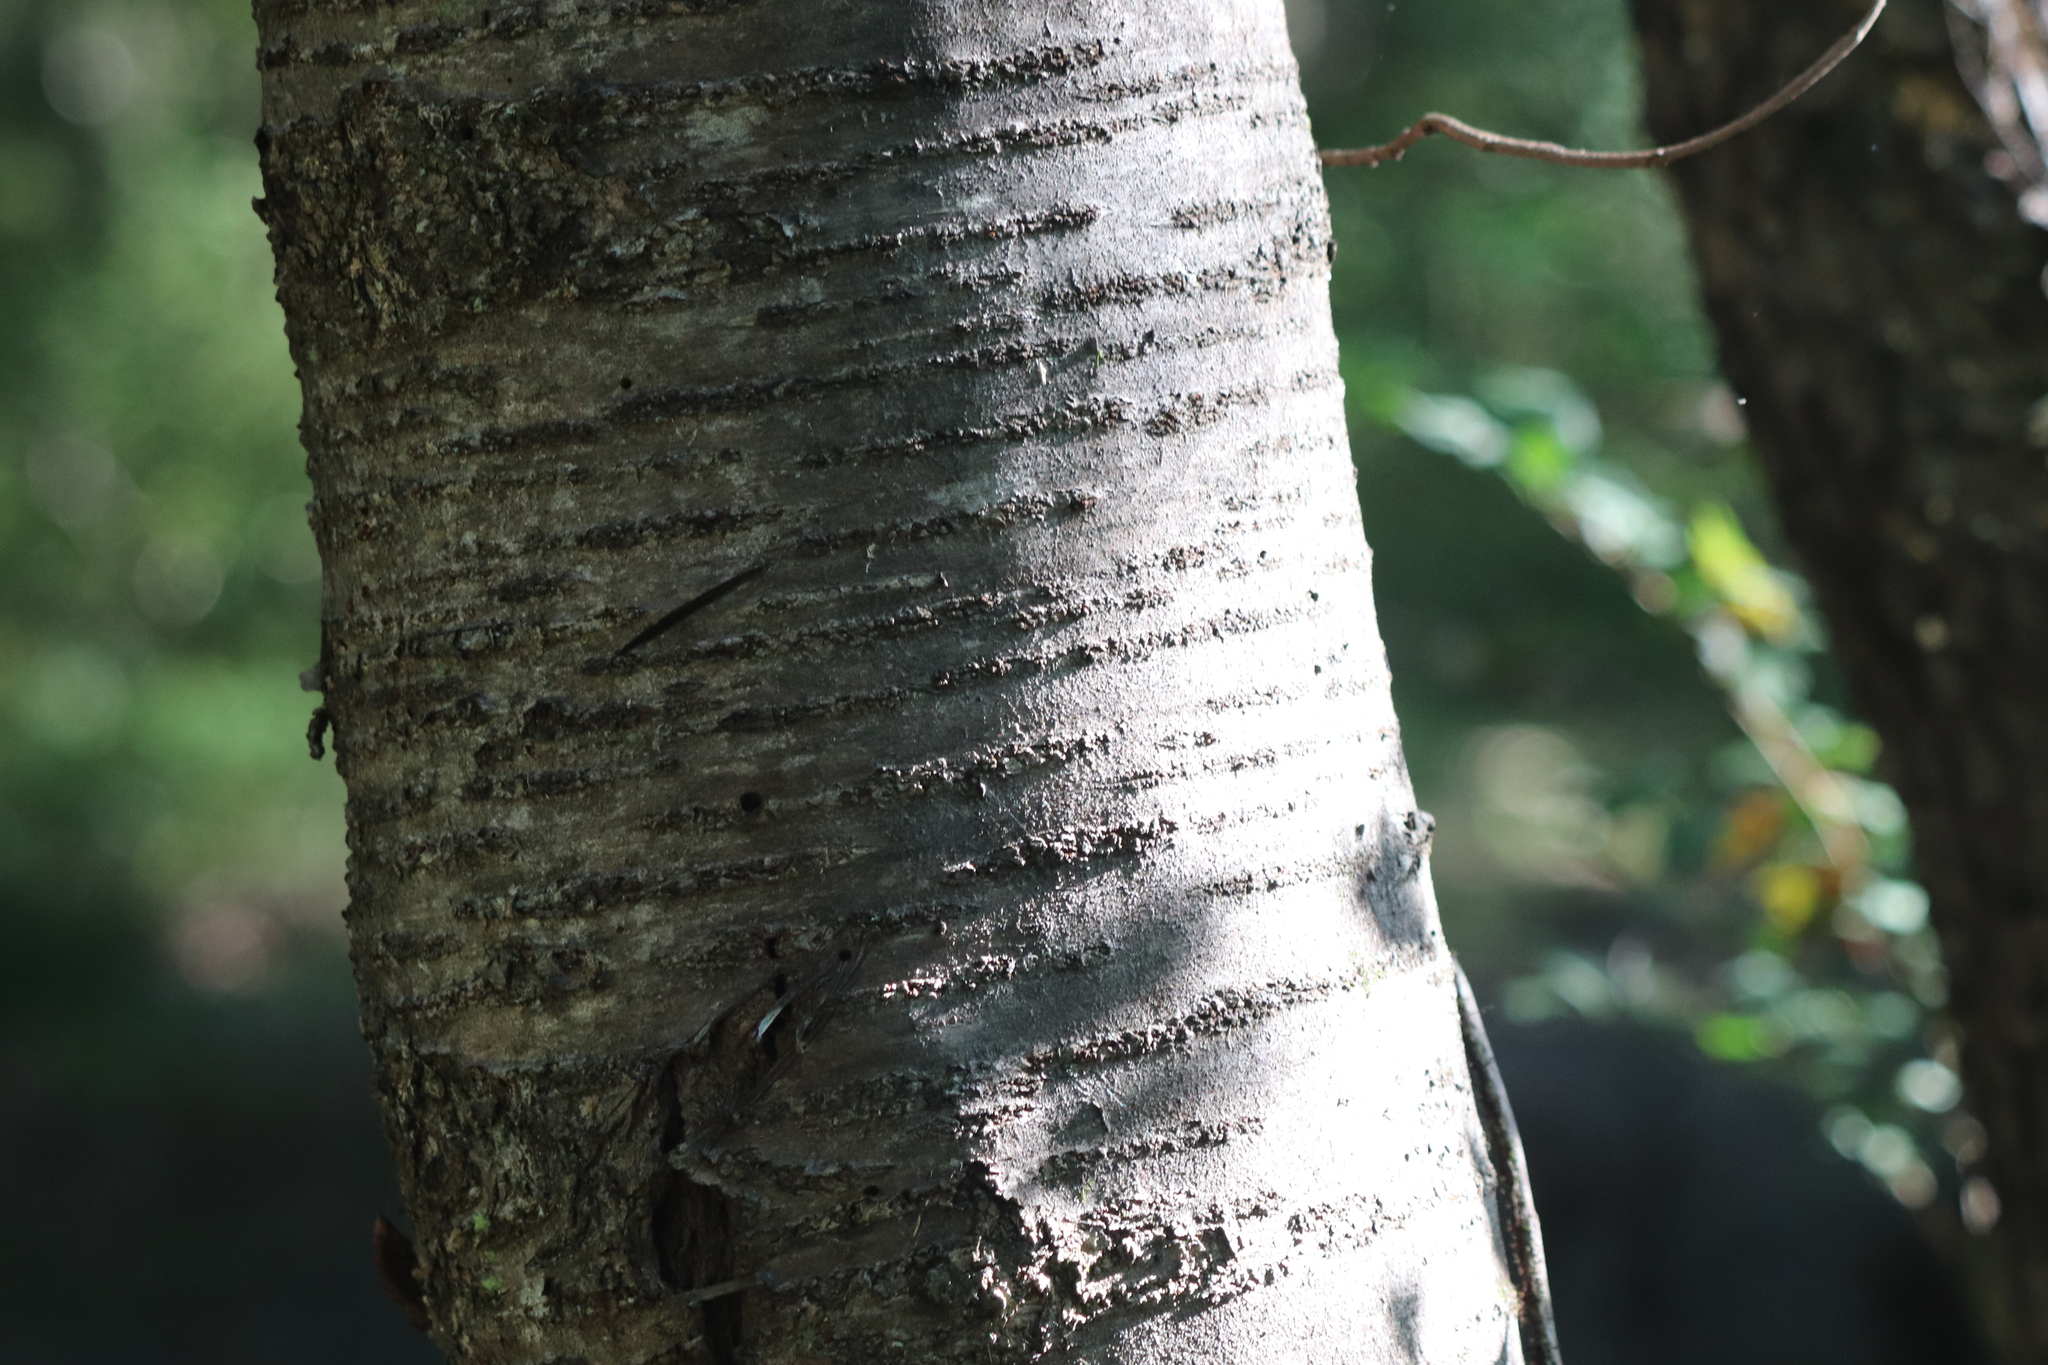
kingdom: Plantae
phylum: Tracheophyta
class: Magnoliopsida
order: Fagales
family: Betulaceae
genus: Betula
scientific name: Betula lenta
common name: Black birch
